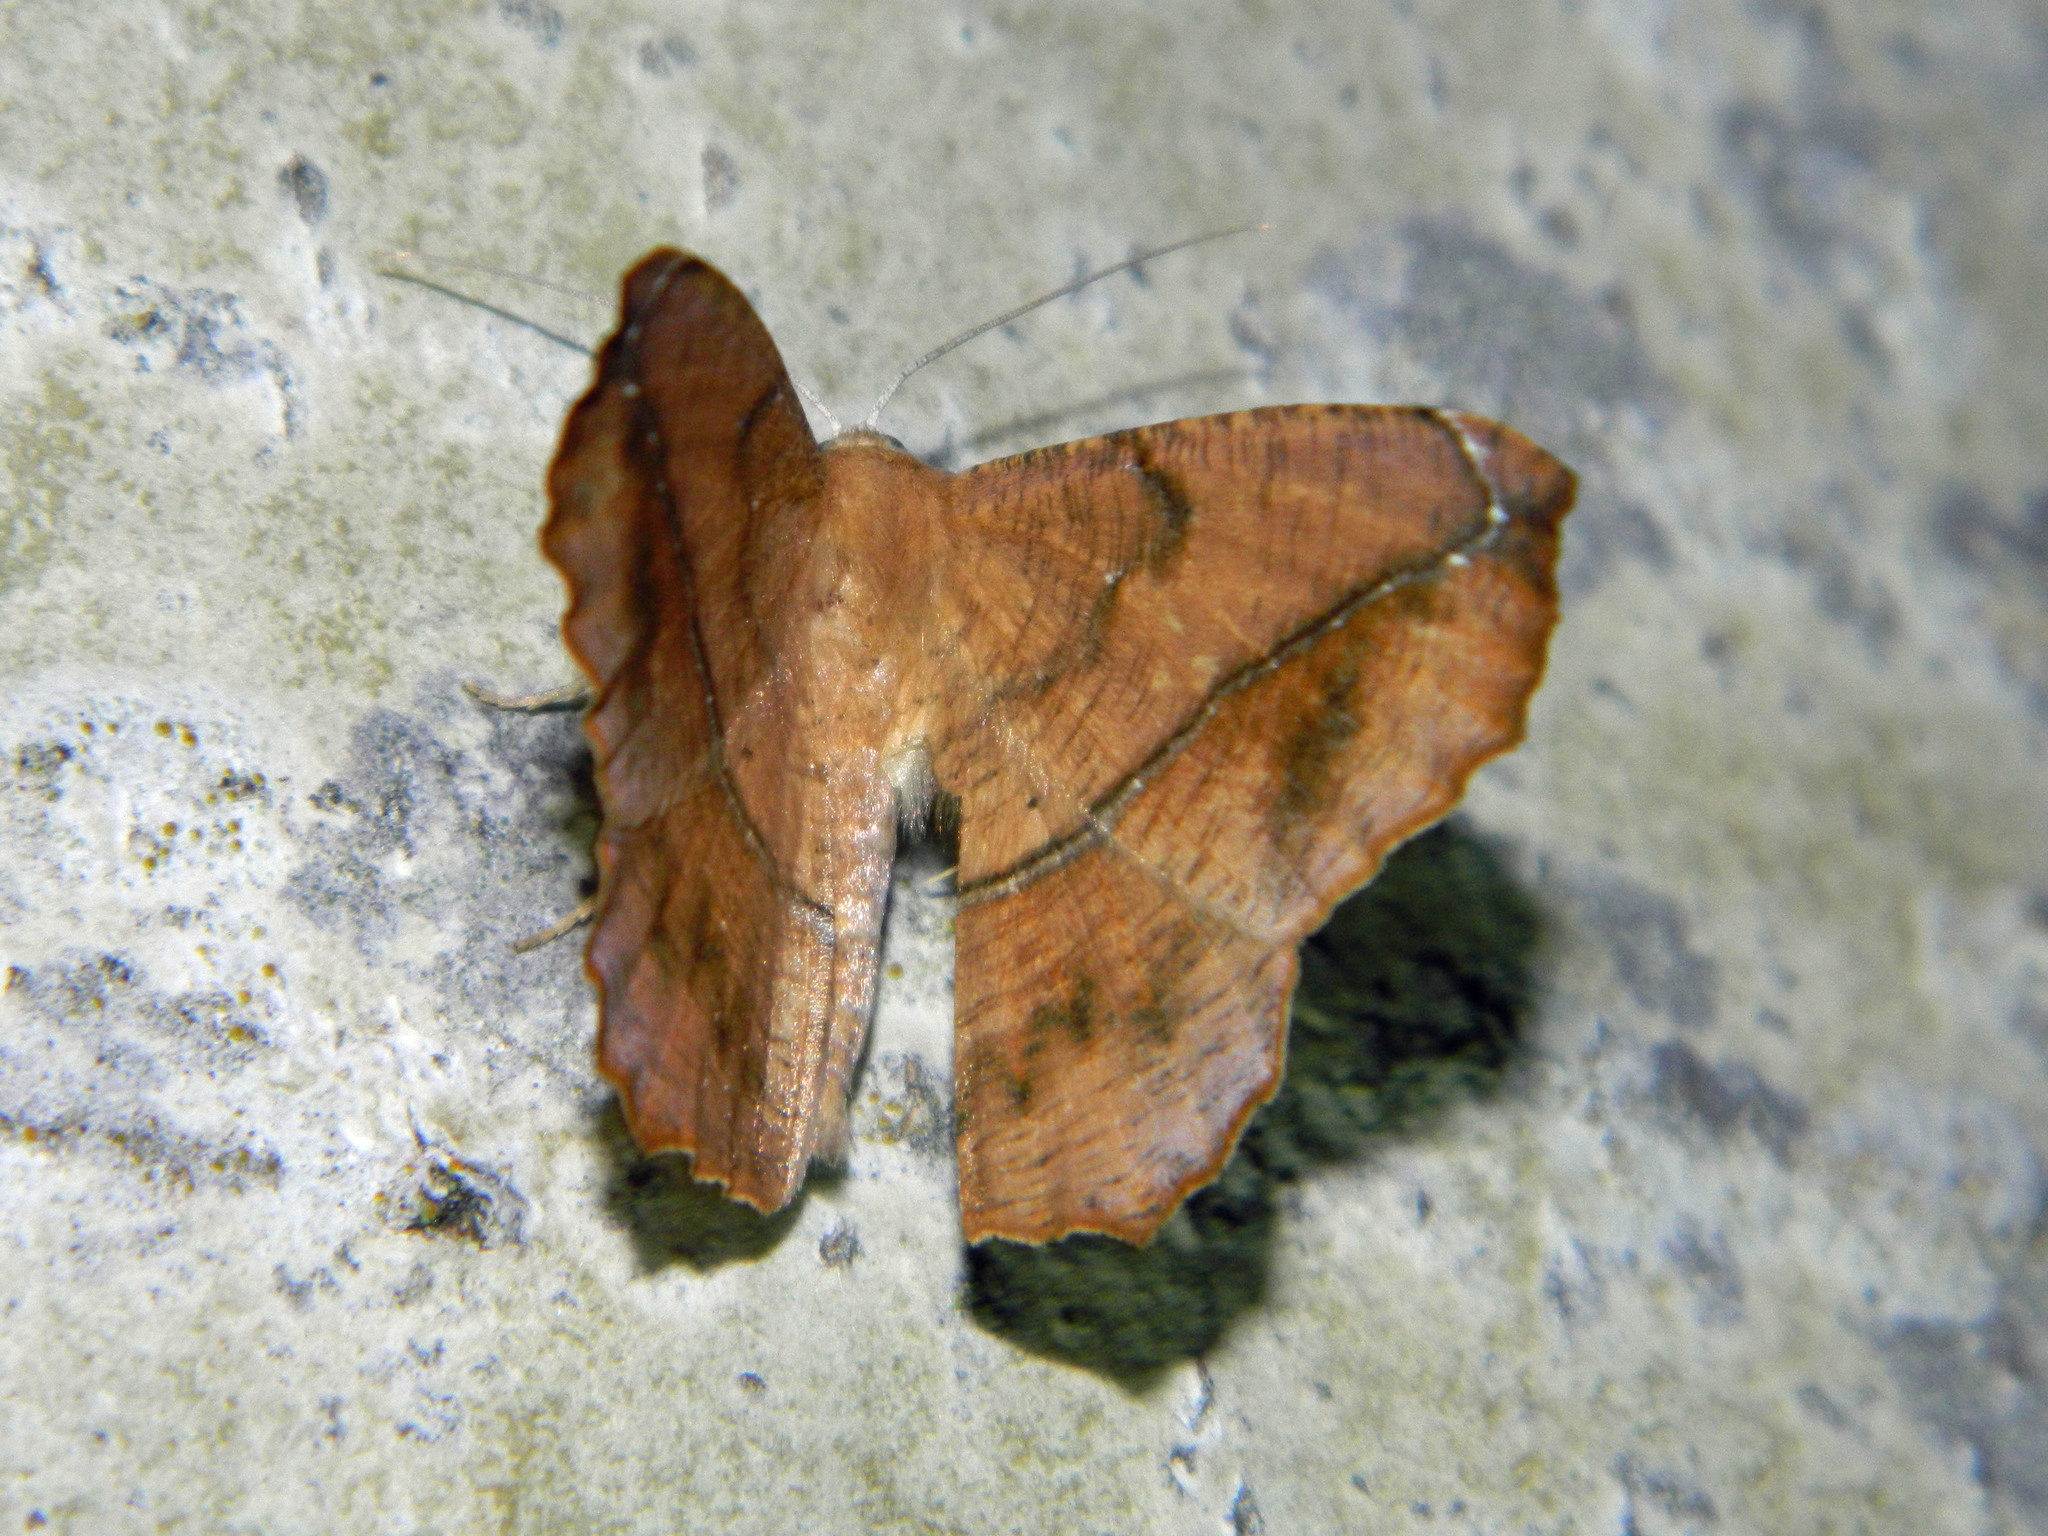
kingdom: Animalia
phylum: Arthropoda
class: Insecta
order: Lepidoptera
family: Geometridae
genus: Prochoerodes
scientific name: Prochoerodes lineola
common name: Large maple spanworm
